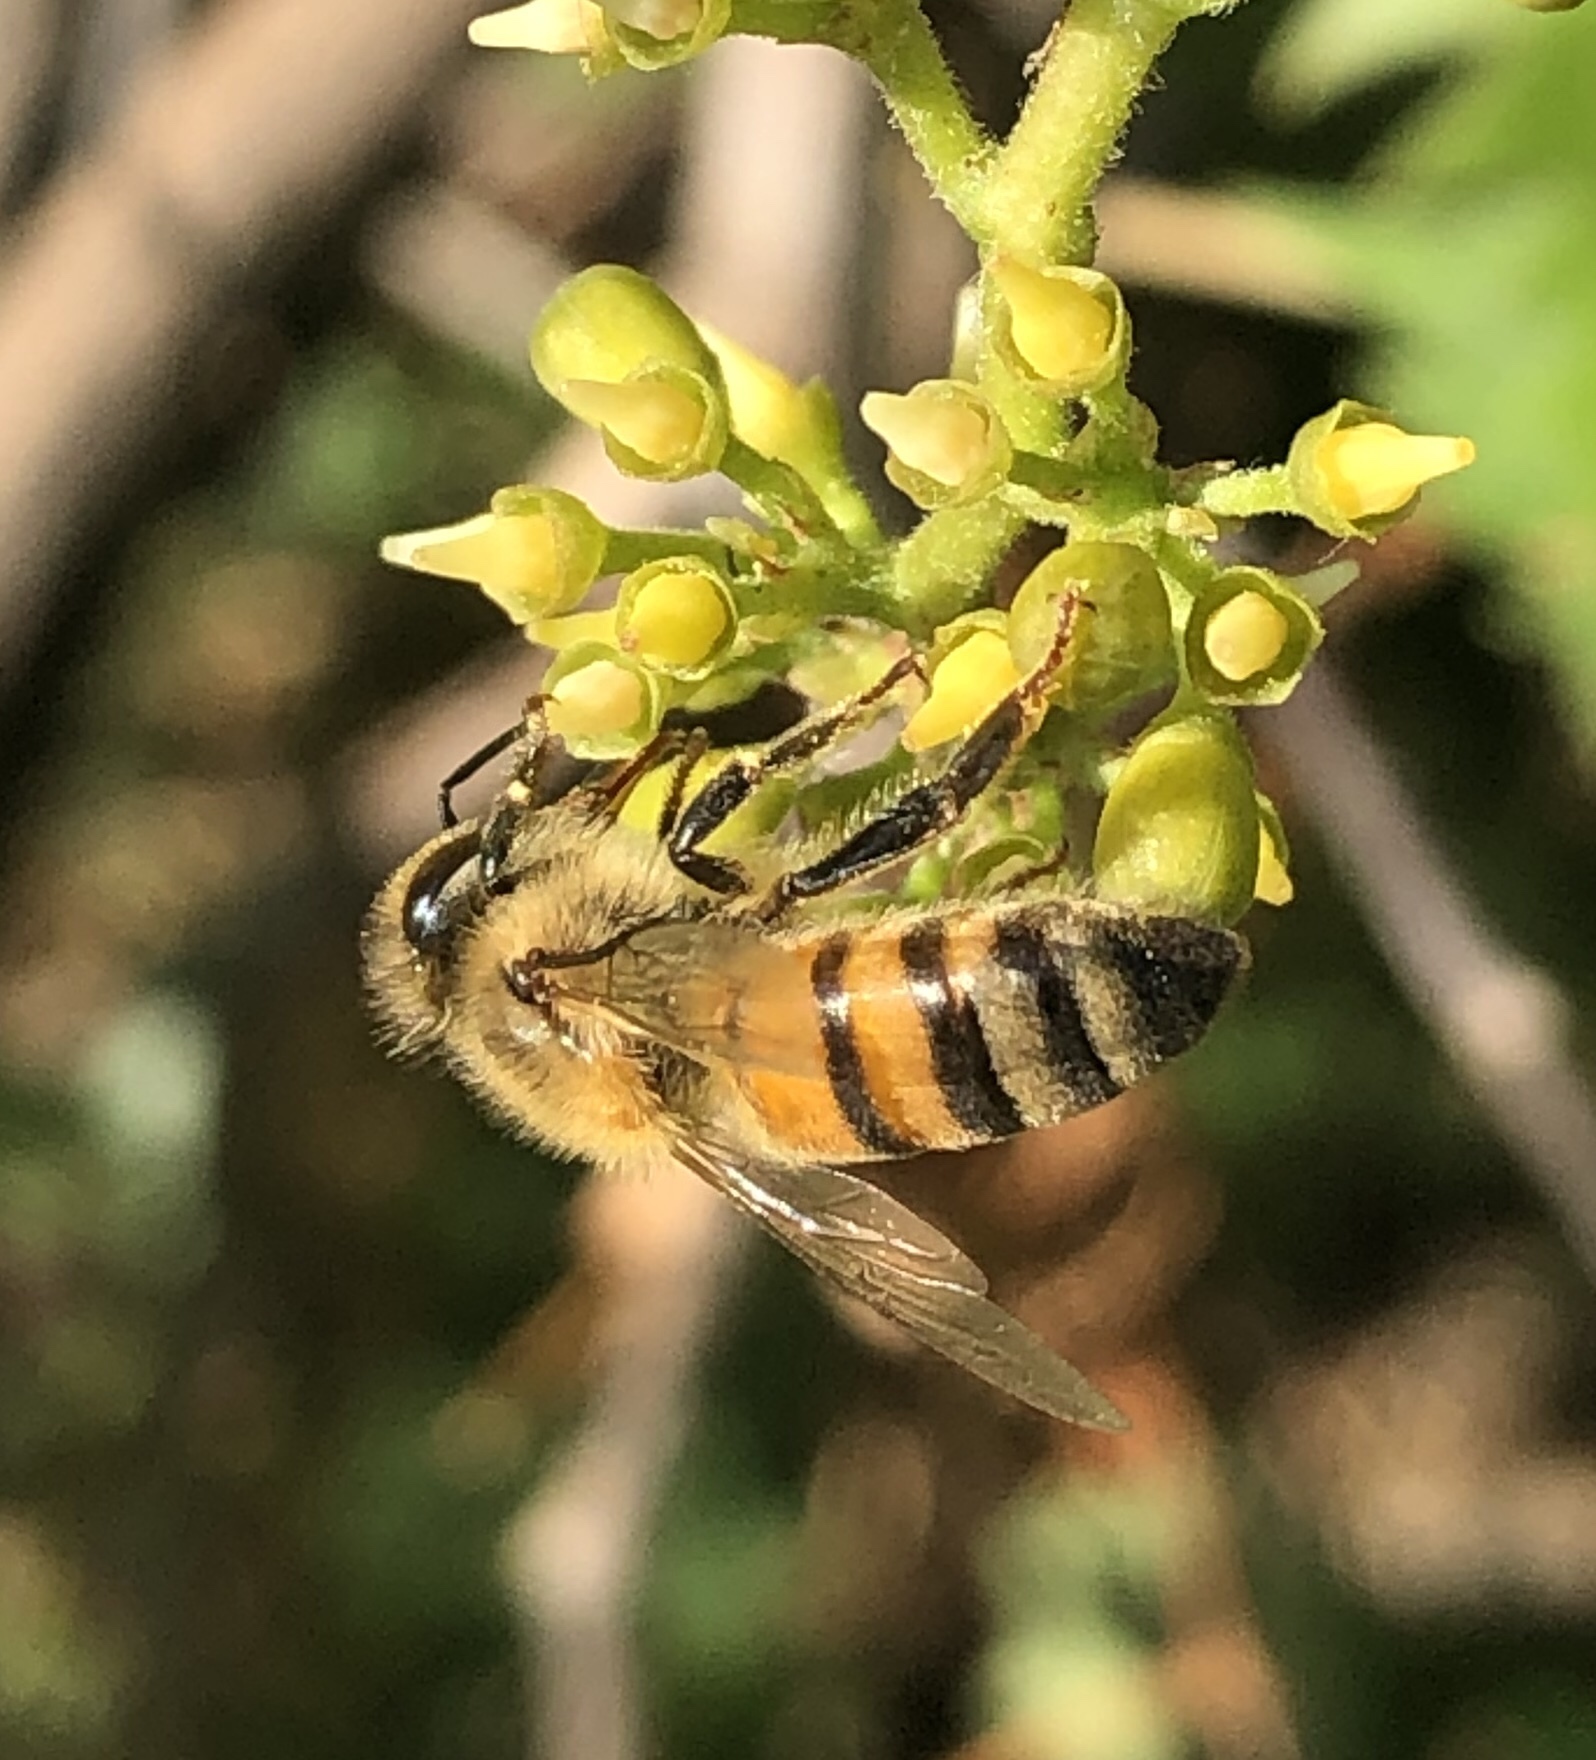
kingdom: Animalia
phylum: Arthropoda
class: Insecta
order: Hymenoptera
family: Apidae
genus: Apis
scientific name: Apis mellifera
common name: Honey bee
